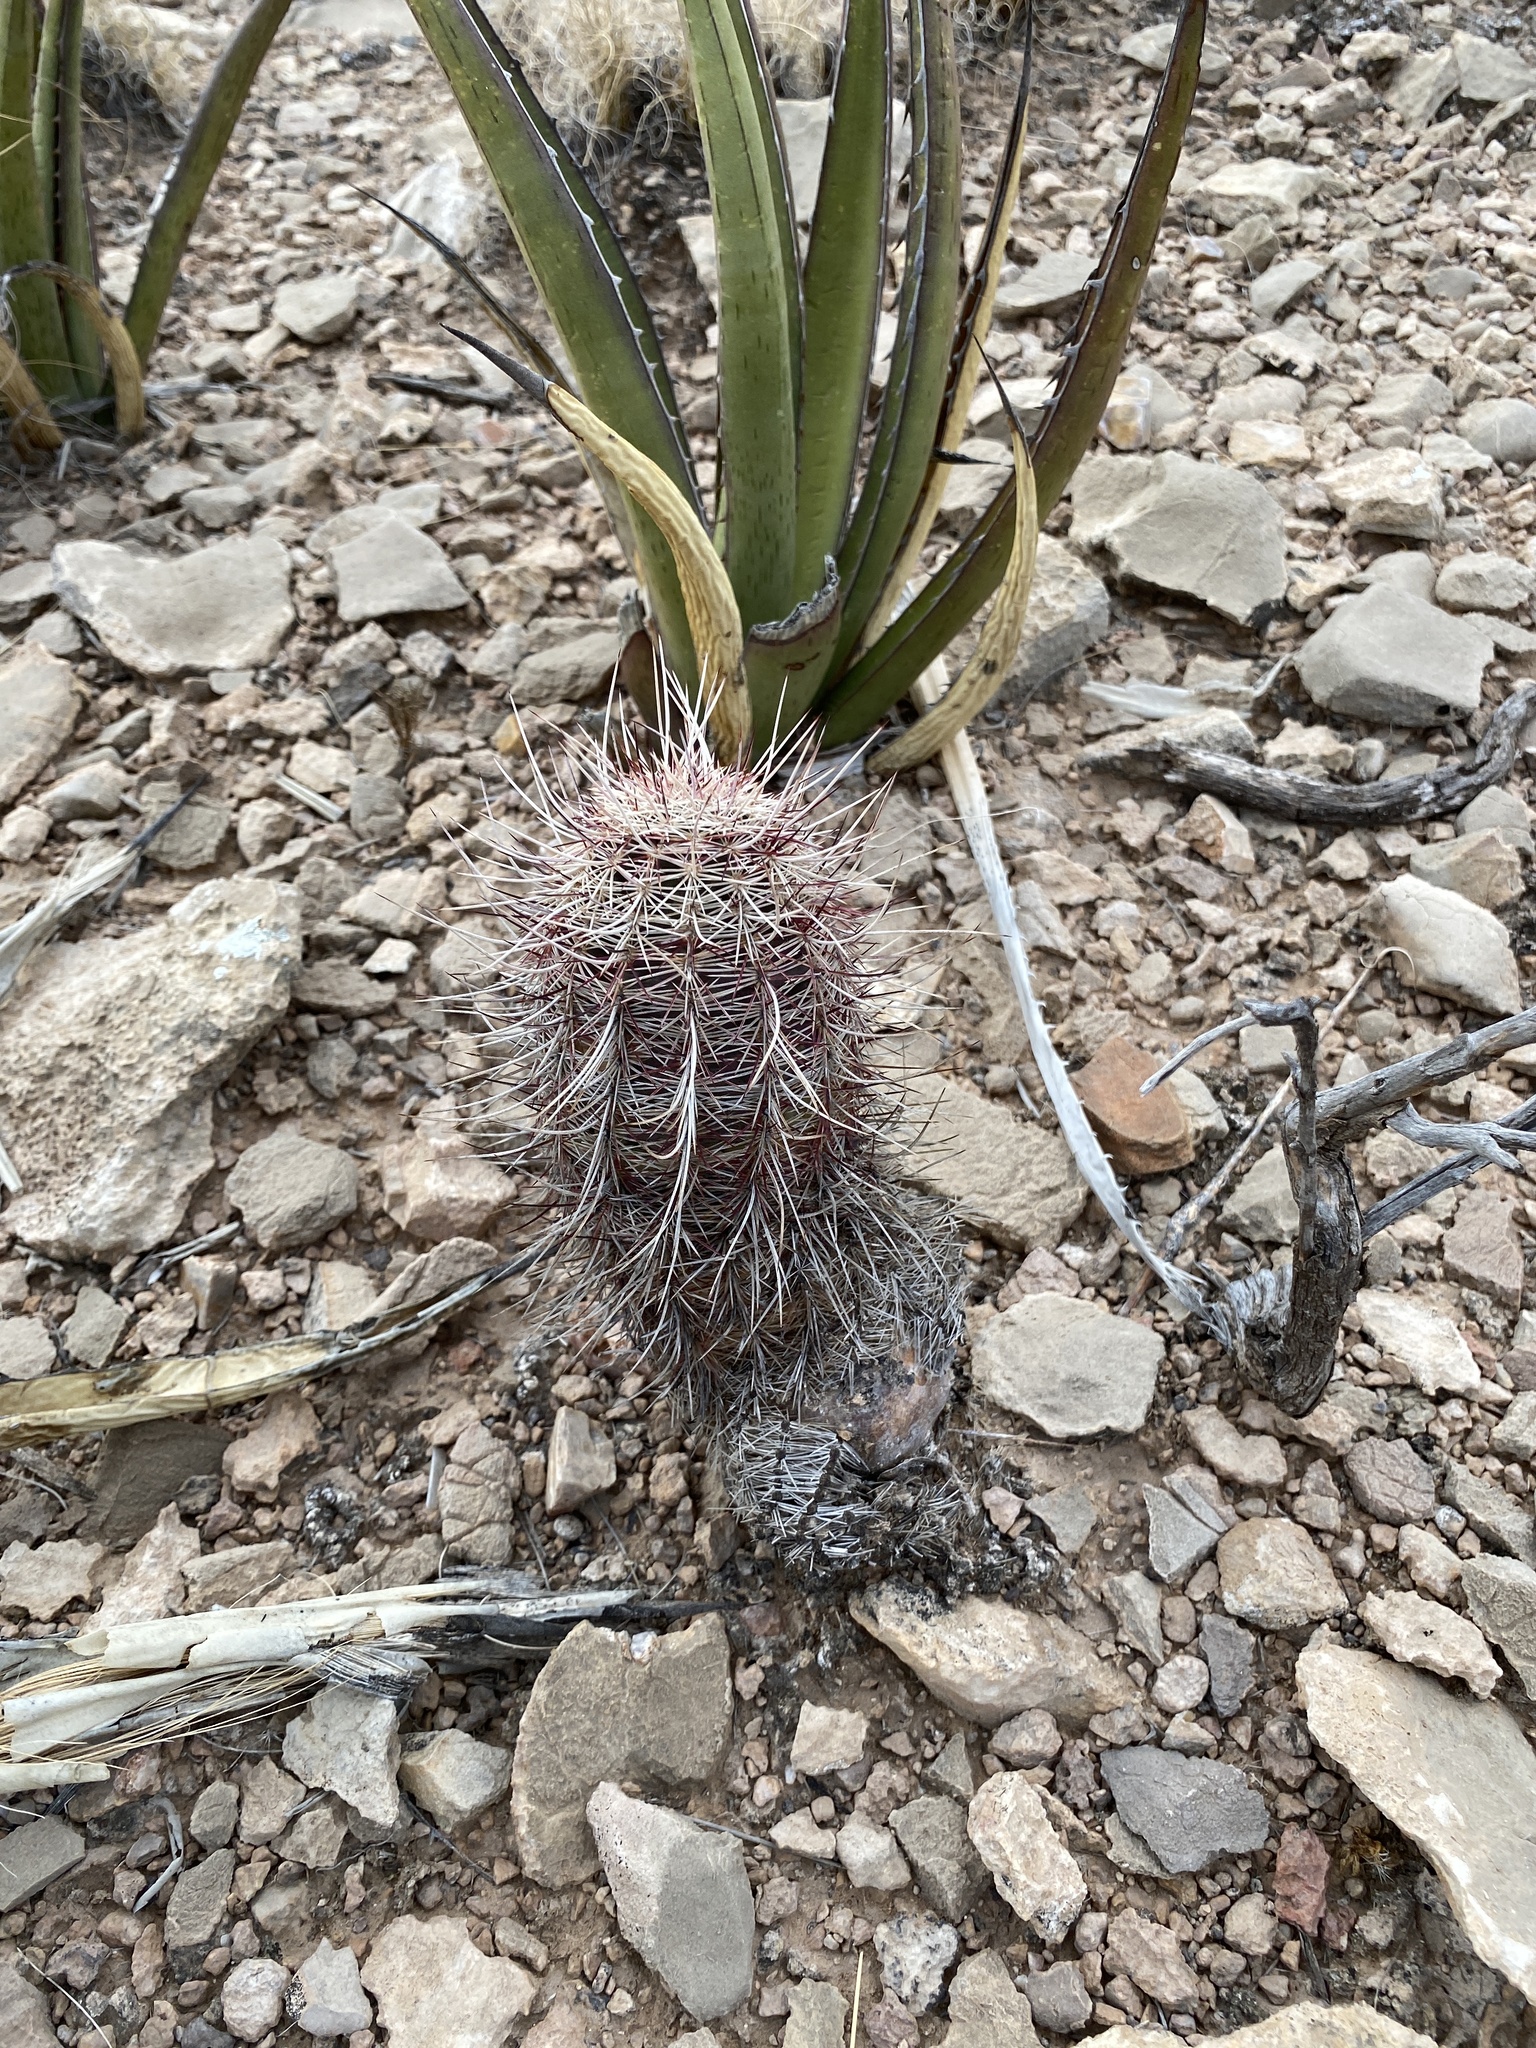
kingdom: Plantae
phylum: Tracheophyta
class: Magnoliopsida
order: Caryophyllales
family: Cactaceae
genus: Echinocereus
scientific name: Echinocereus viridiflorus
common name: Nylon hedgehog cactus
